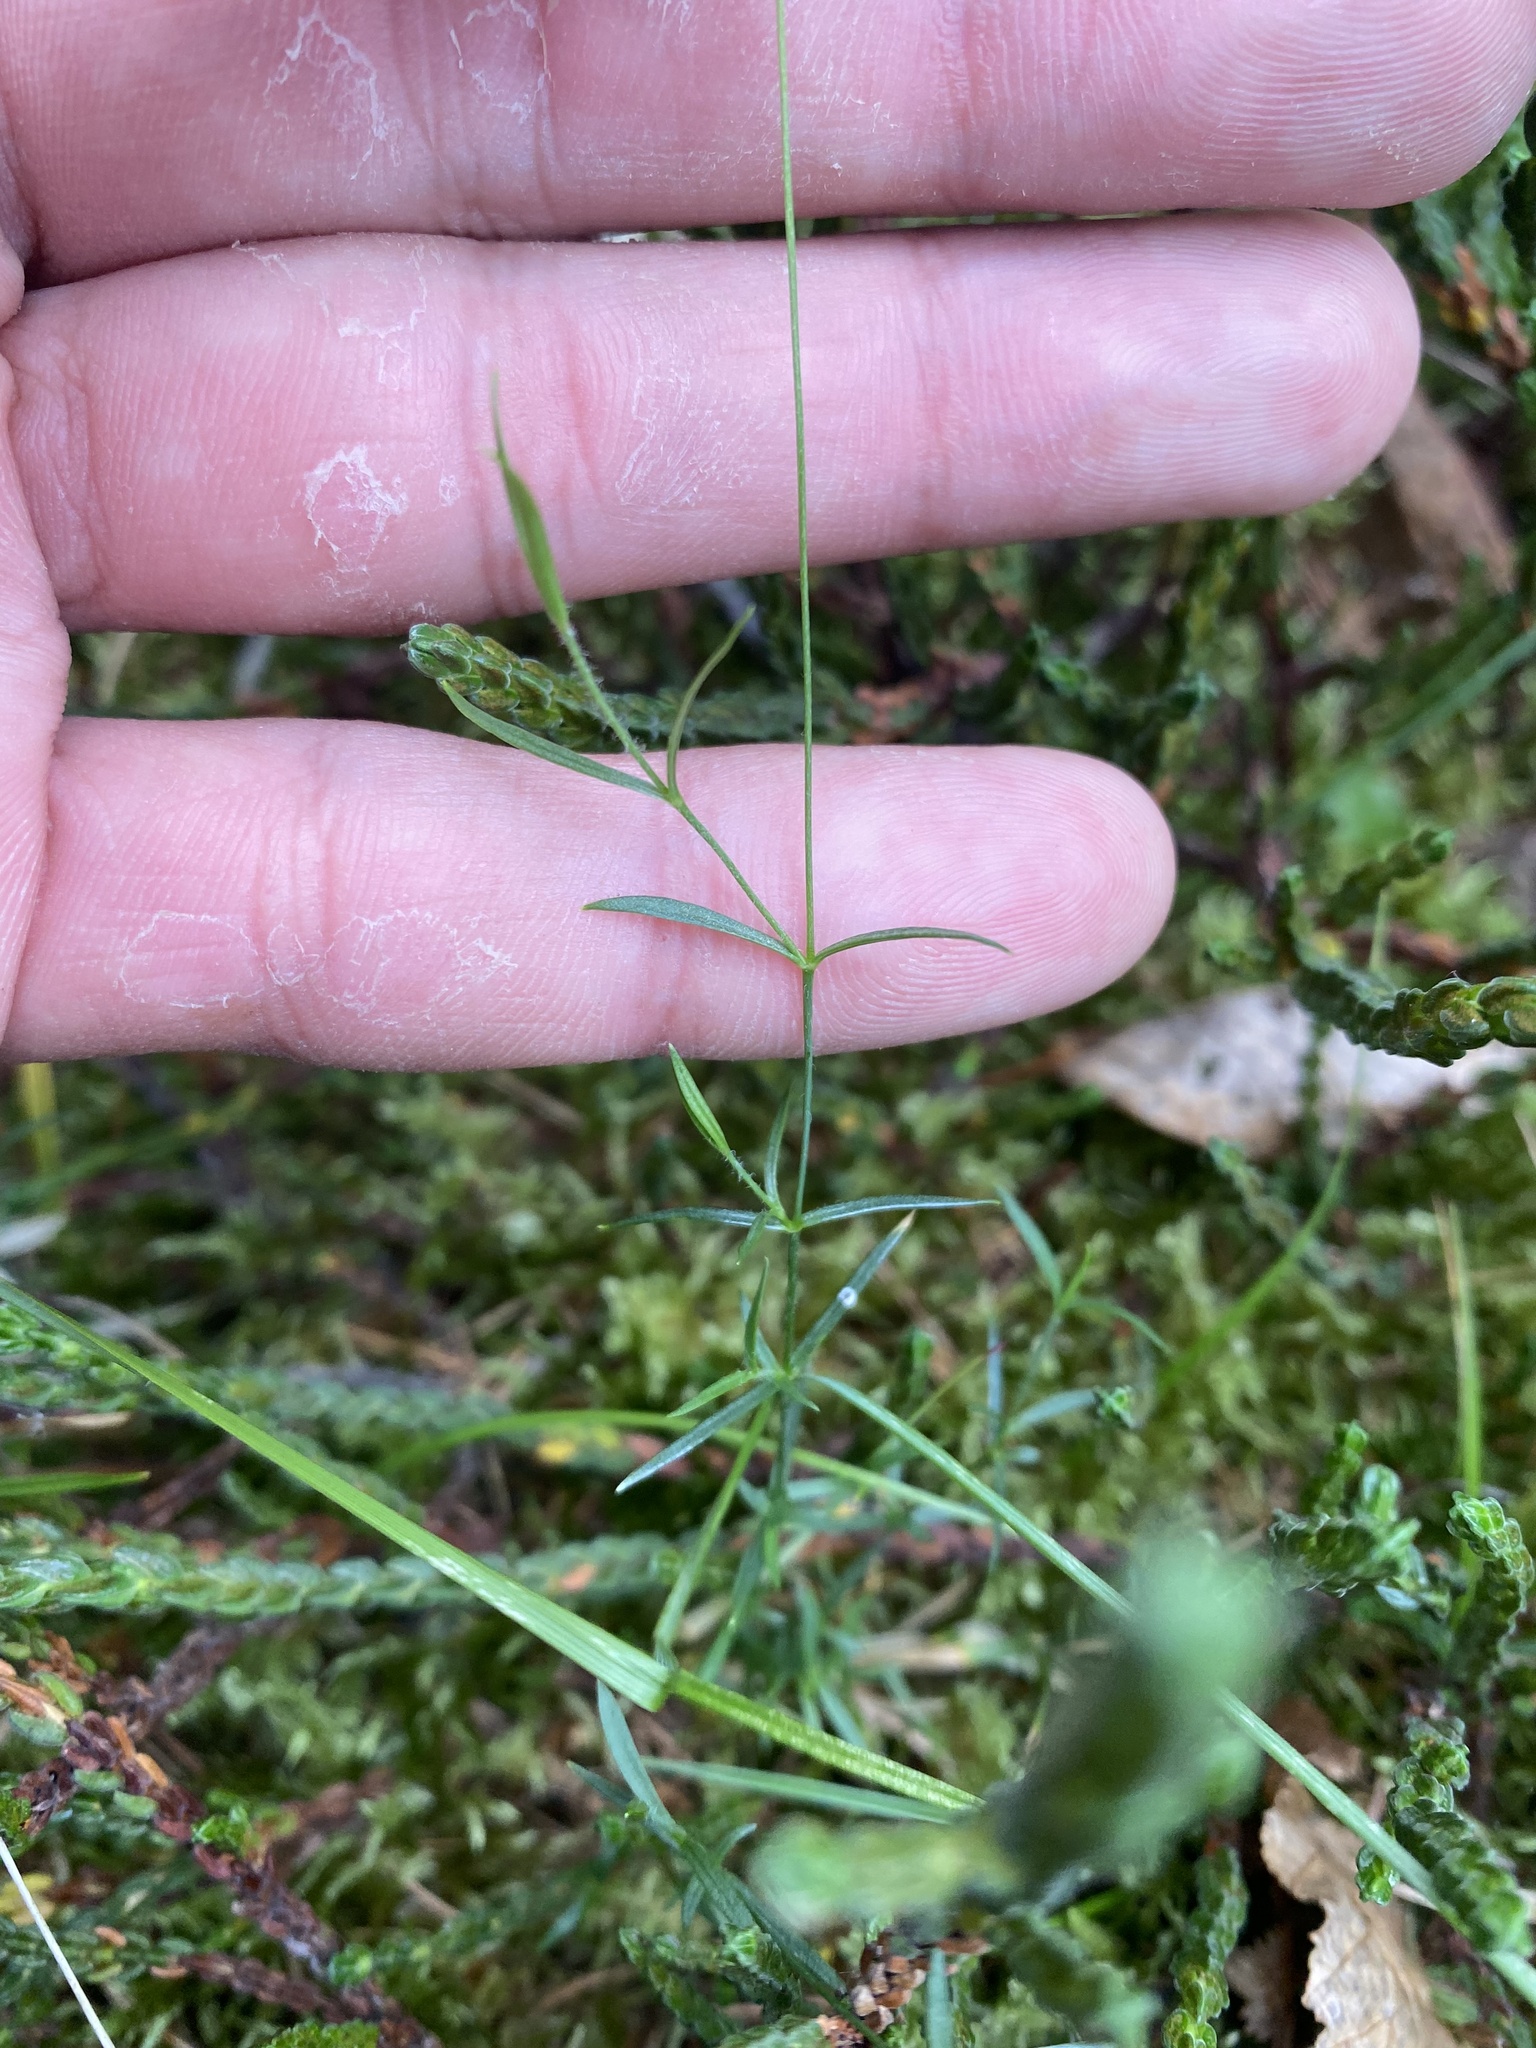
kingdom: Plantae
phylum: Tracheophyta
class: Magnoliopsida
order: Caryophyllales
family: Caryophyllaceae
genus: Stellaria
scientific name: Stellaria peduncularis
